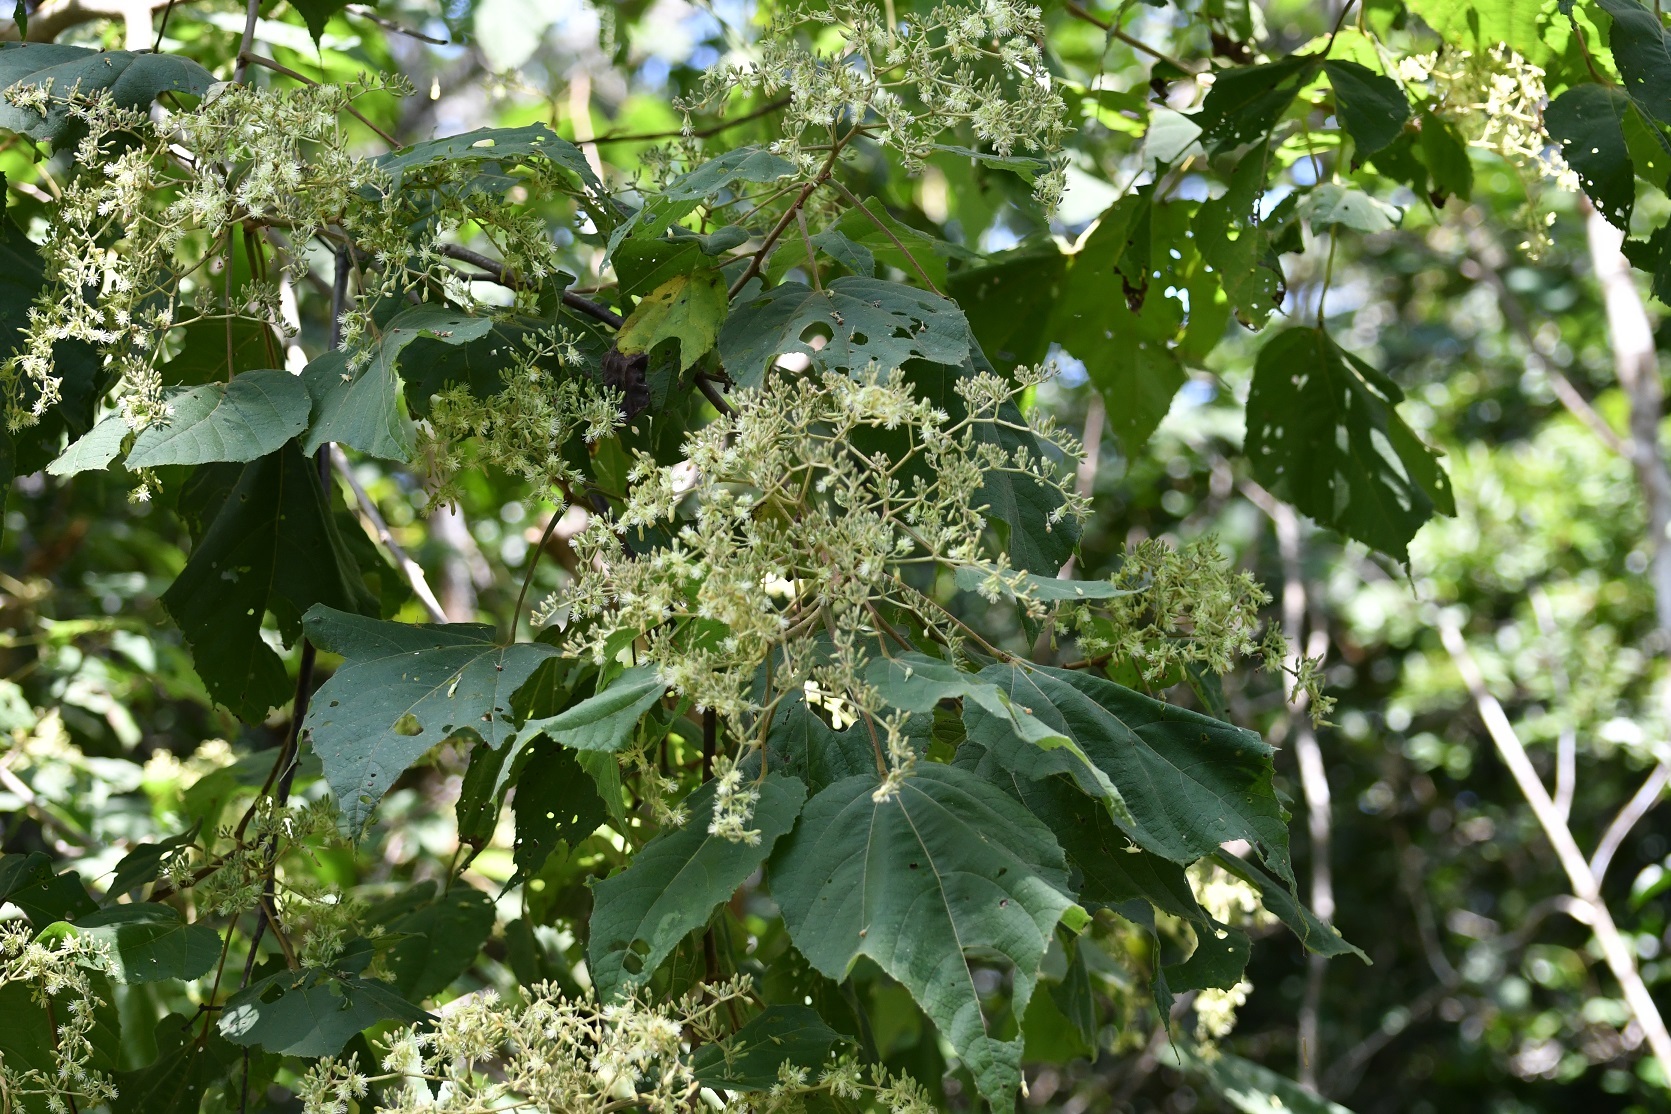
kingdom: Plantae
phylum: Tracheophyta
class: Magnoliopsida
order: Malvales
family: Malvaceae
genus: Heliocarpus
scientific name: Heliocarpus terebinthinaceus
